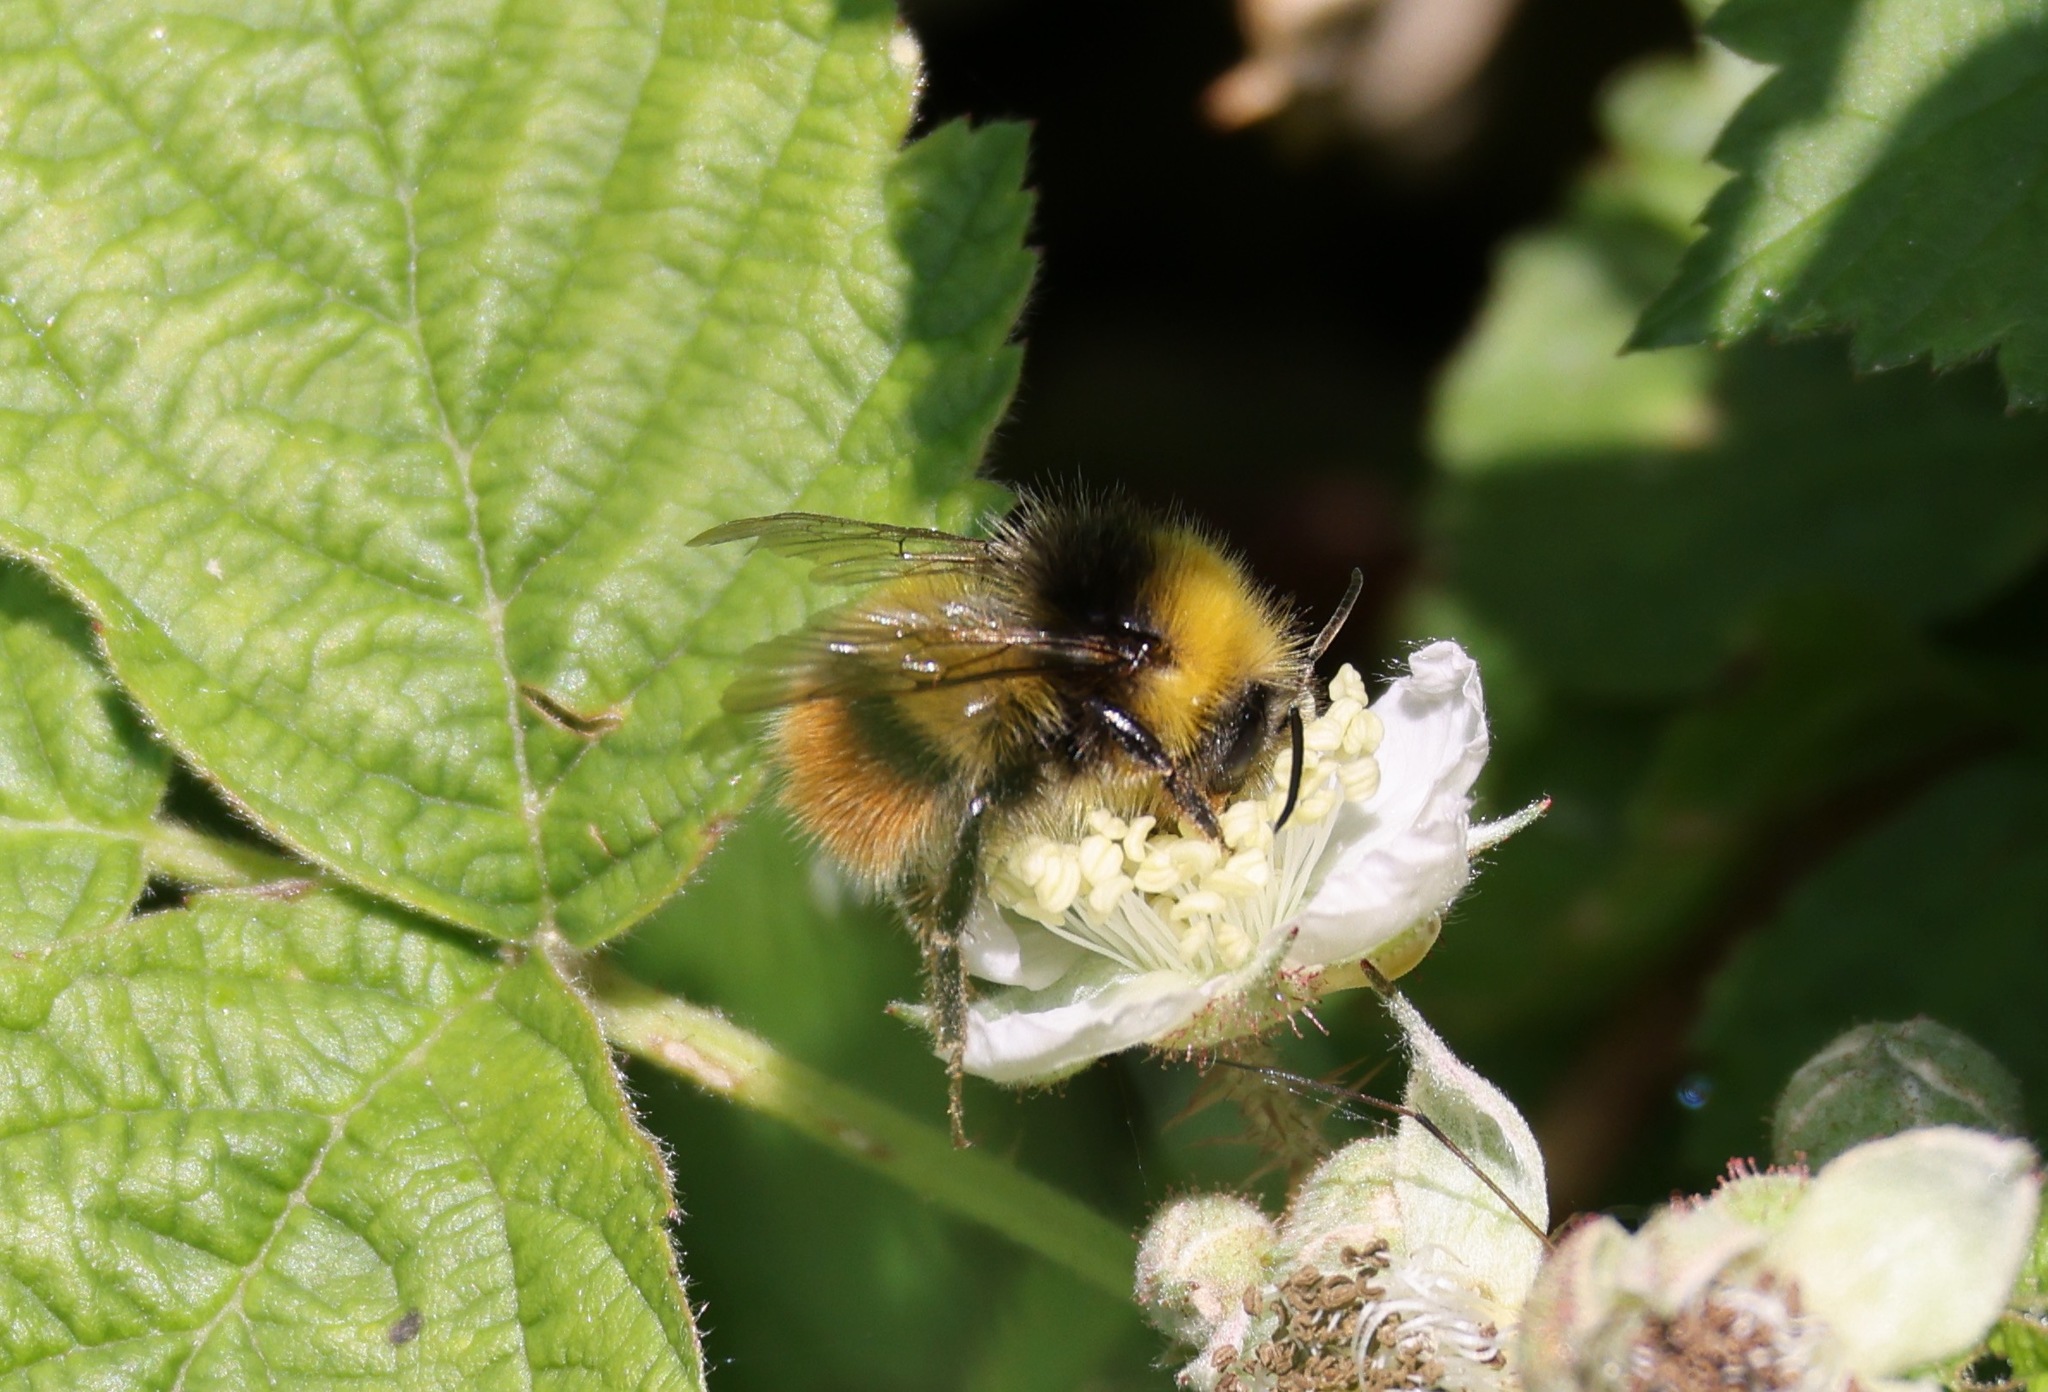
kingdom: Animalia
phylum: Arthropoda
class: Insecta
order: Hymenoptera
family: Apidae
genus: Bombus
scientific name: Bombus pratorum
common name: Early humble-bee
